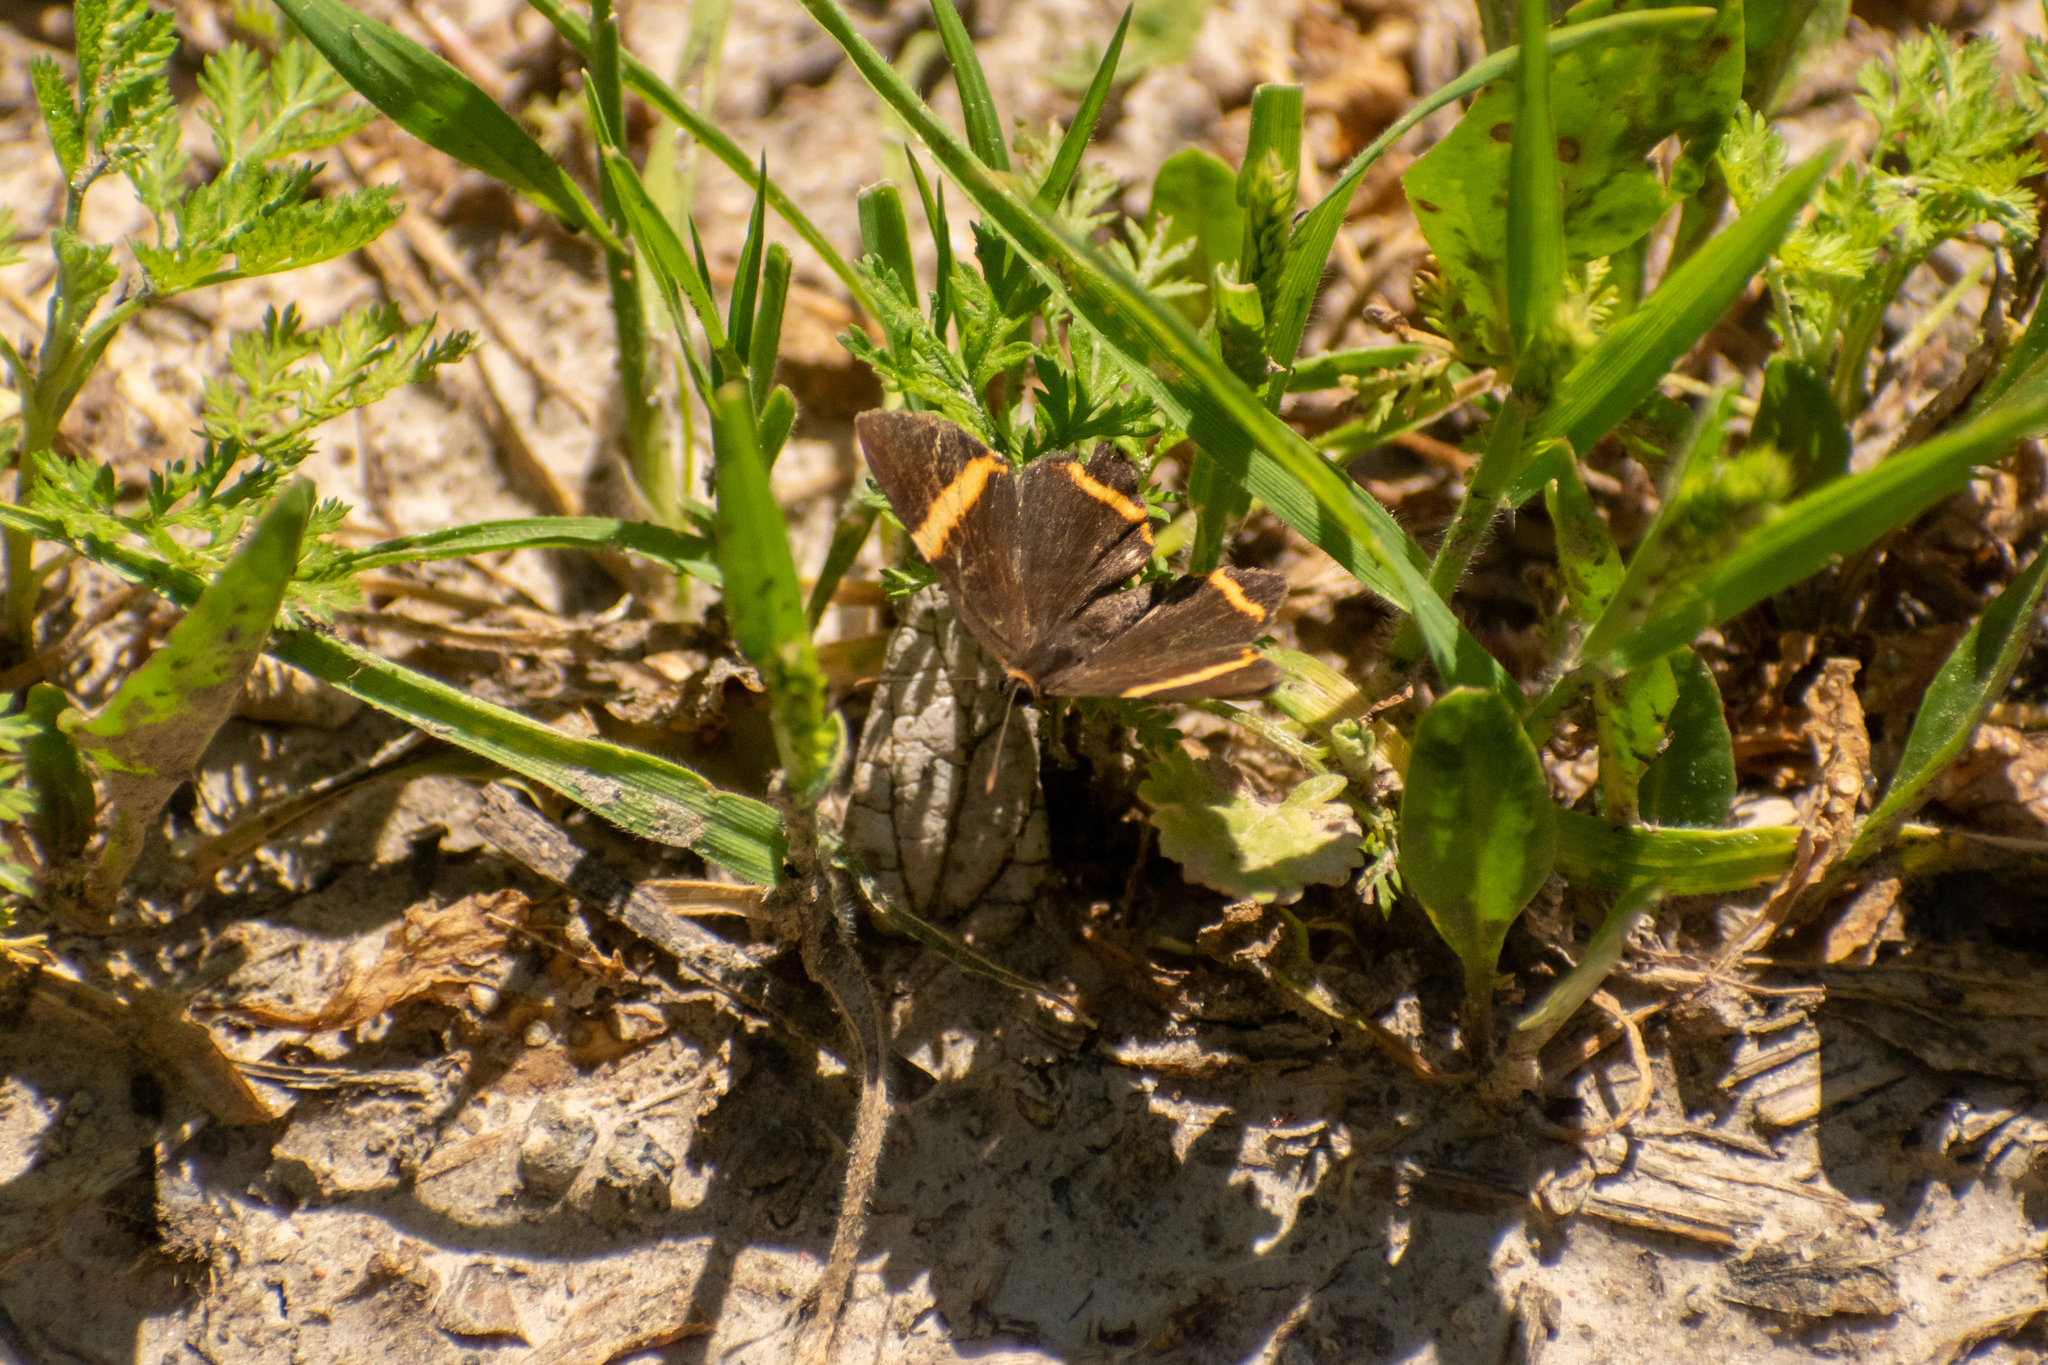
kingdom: Animalia
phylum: Arthropoda
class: Insecta
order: Lepidoptera
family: Riodinidae
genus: Riodina
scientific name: Riodina lysippoides
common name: Little dancer metalmark
